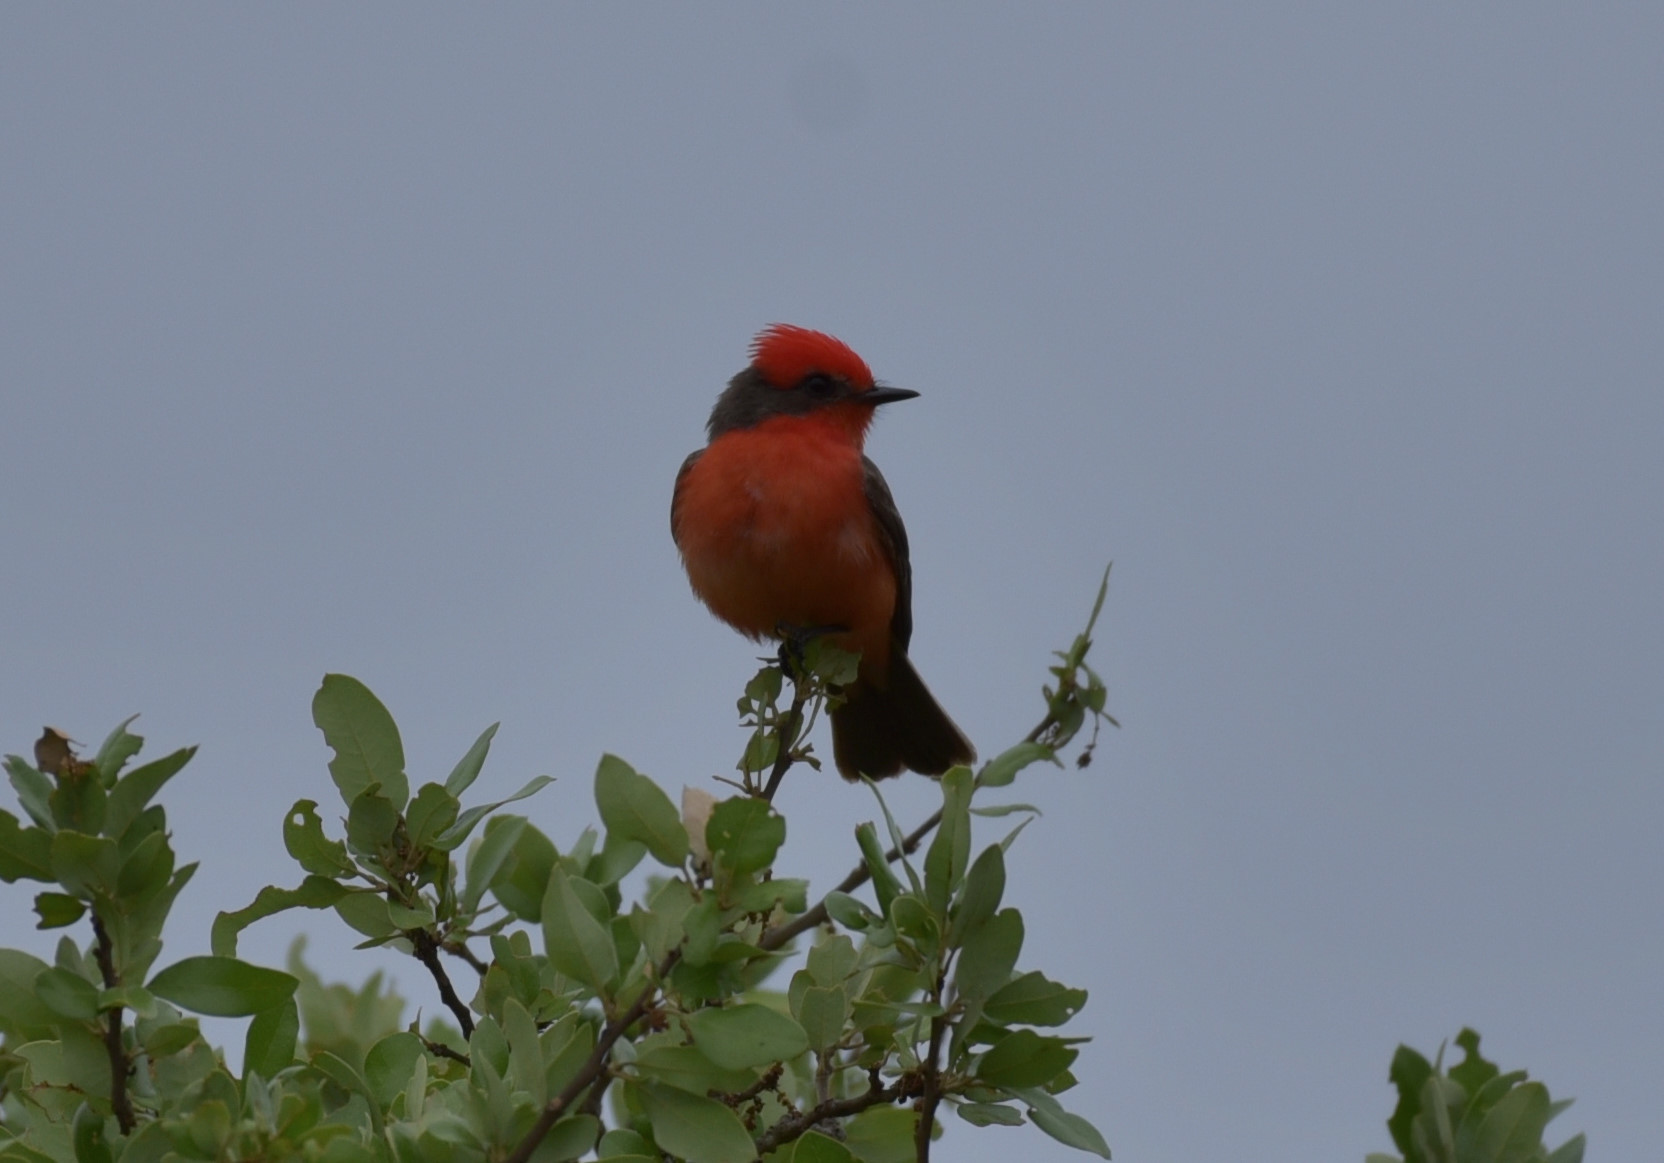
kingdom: Animalia
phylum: Chordata
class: Aves
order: Passeriformes
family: Tyrannidae
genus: Pyrocephalus
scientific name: Pyrocephalus rubinus
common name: Vermilion flycatcher
